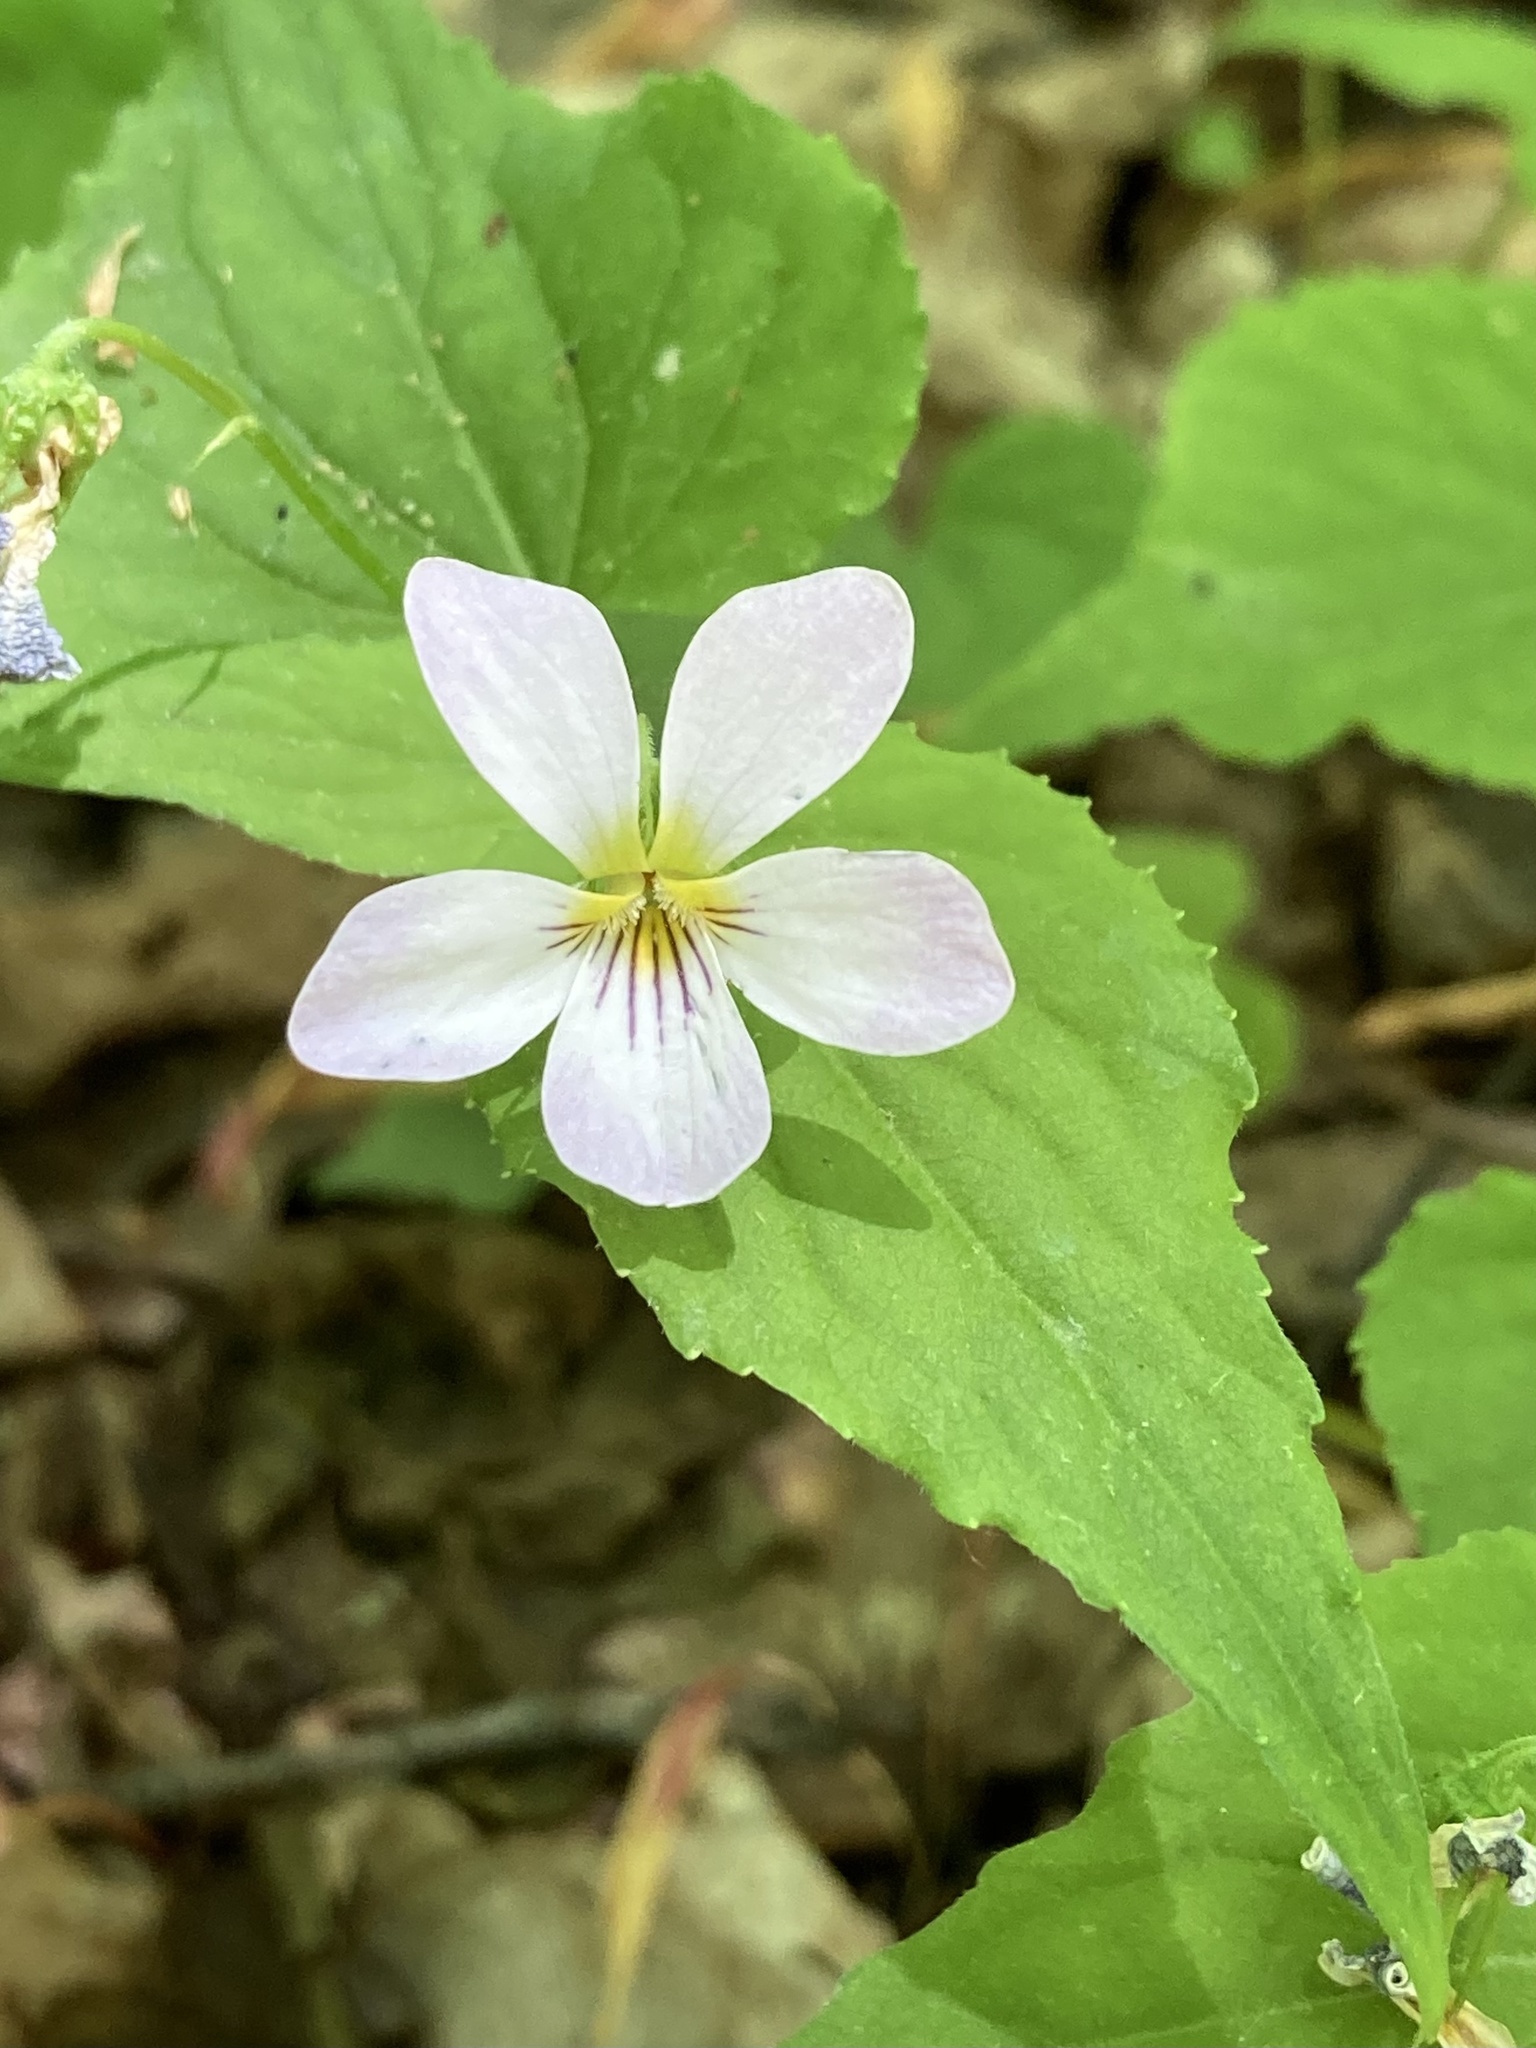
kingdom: Plantae
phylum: Tracheophyta
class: Magnoliopsida
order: Malpighiales
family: Violaceae
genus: Viola
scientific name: Viola canadensis
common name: Canada violet
